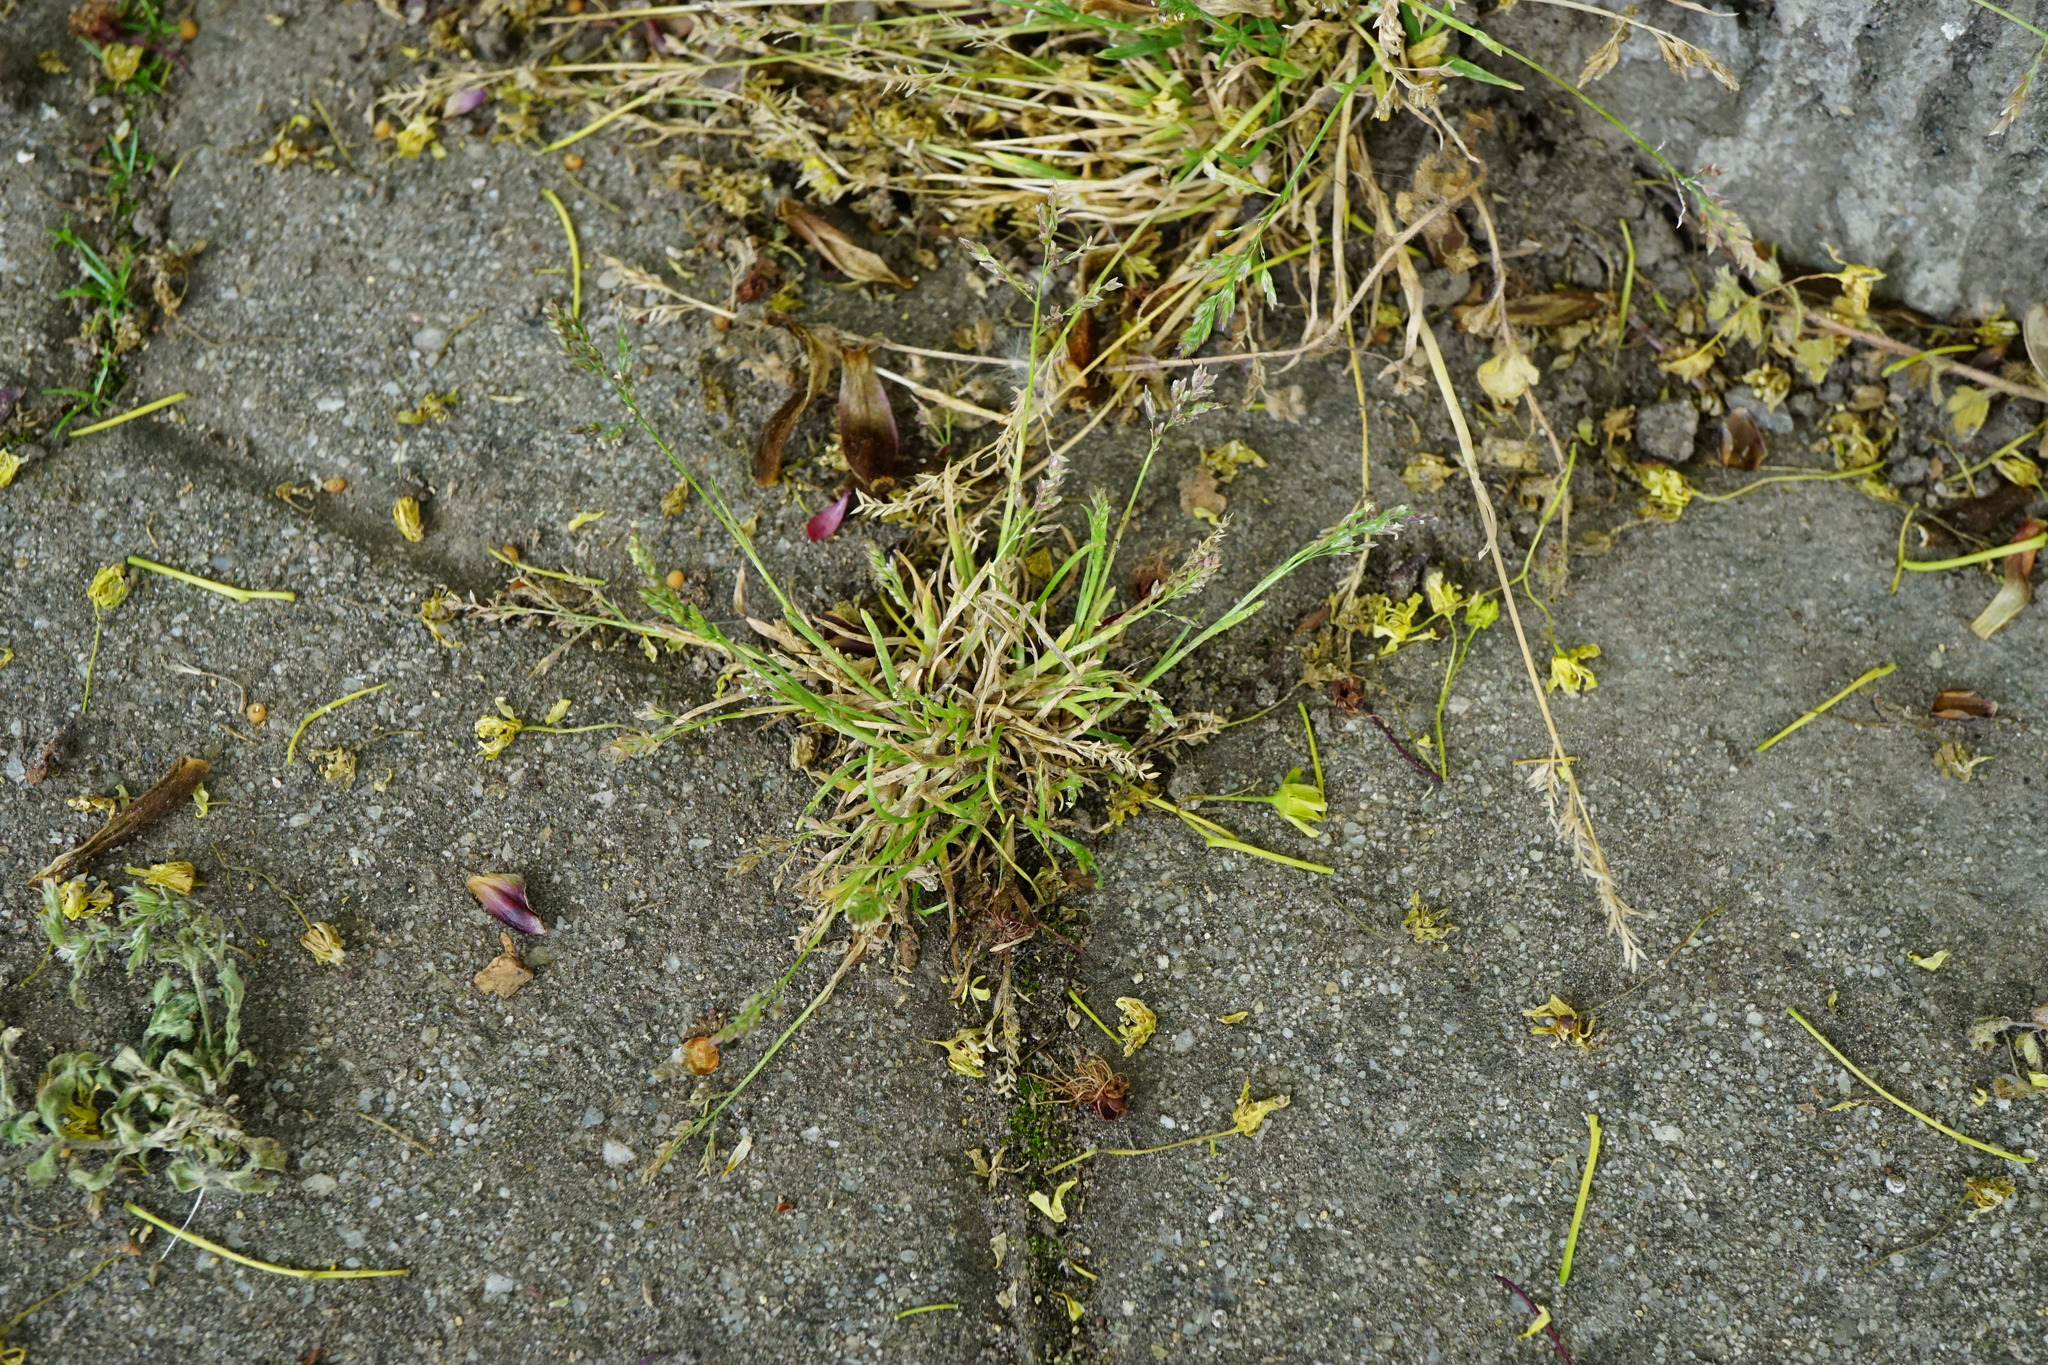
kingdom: Plantae
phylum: Tracheophyta
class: Liliopsida
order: Poales
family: Poaceae
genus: Poa
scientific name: Poa annua
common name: Annual bluegrass
